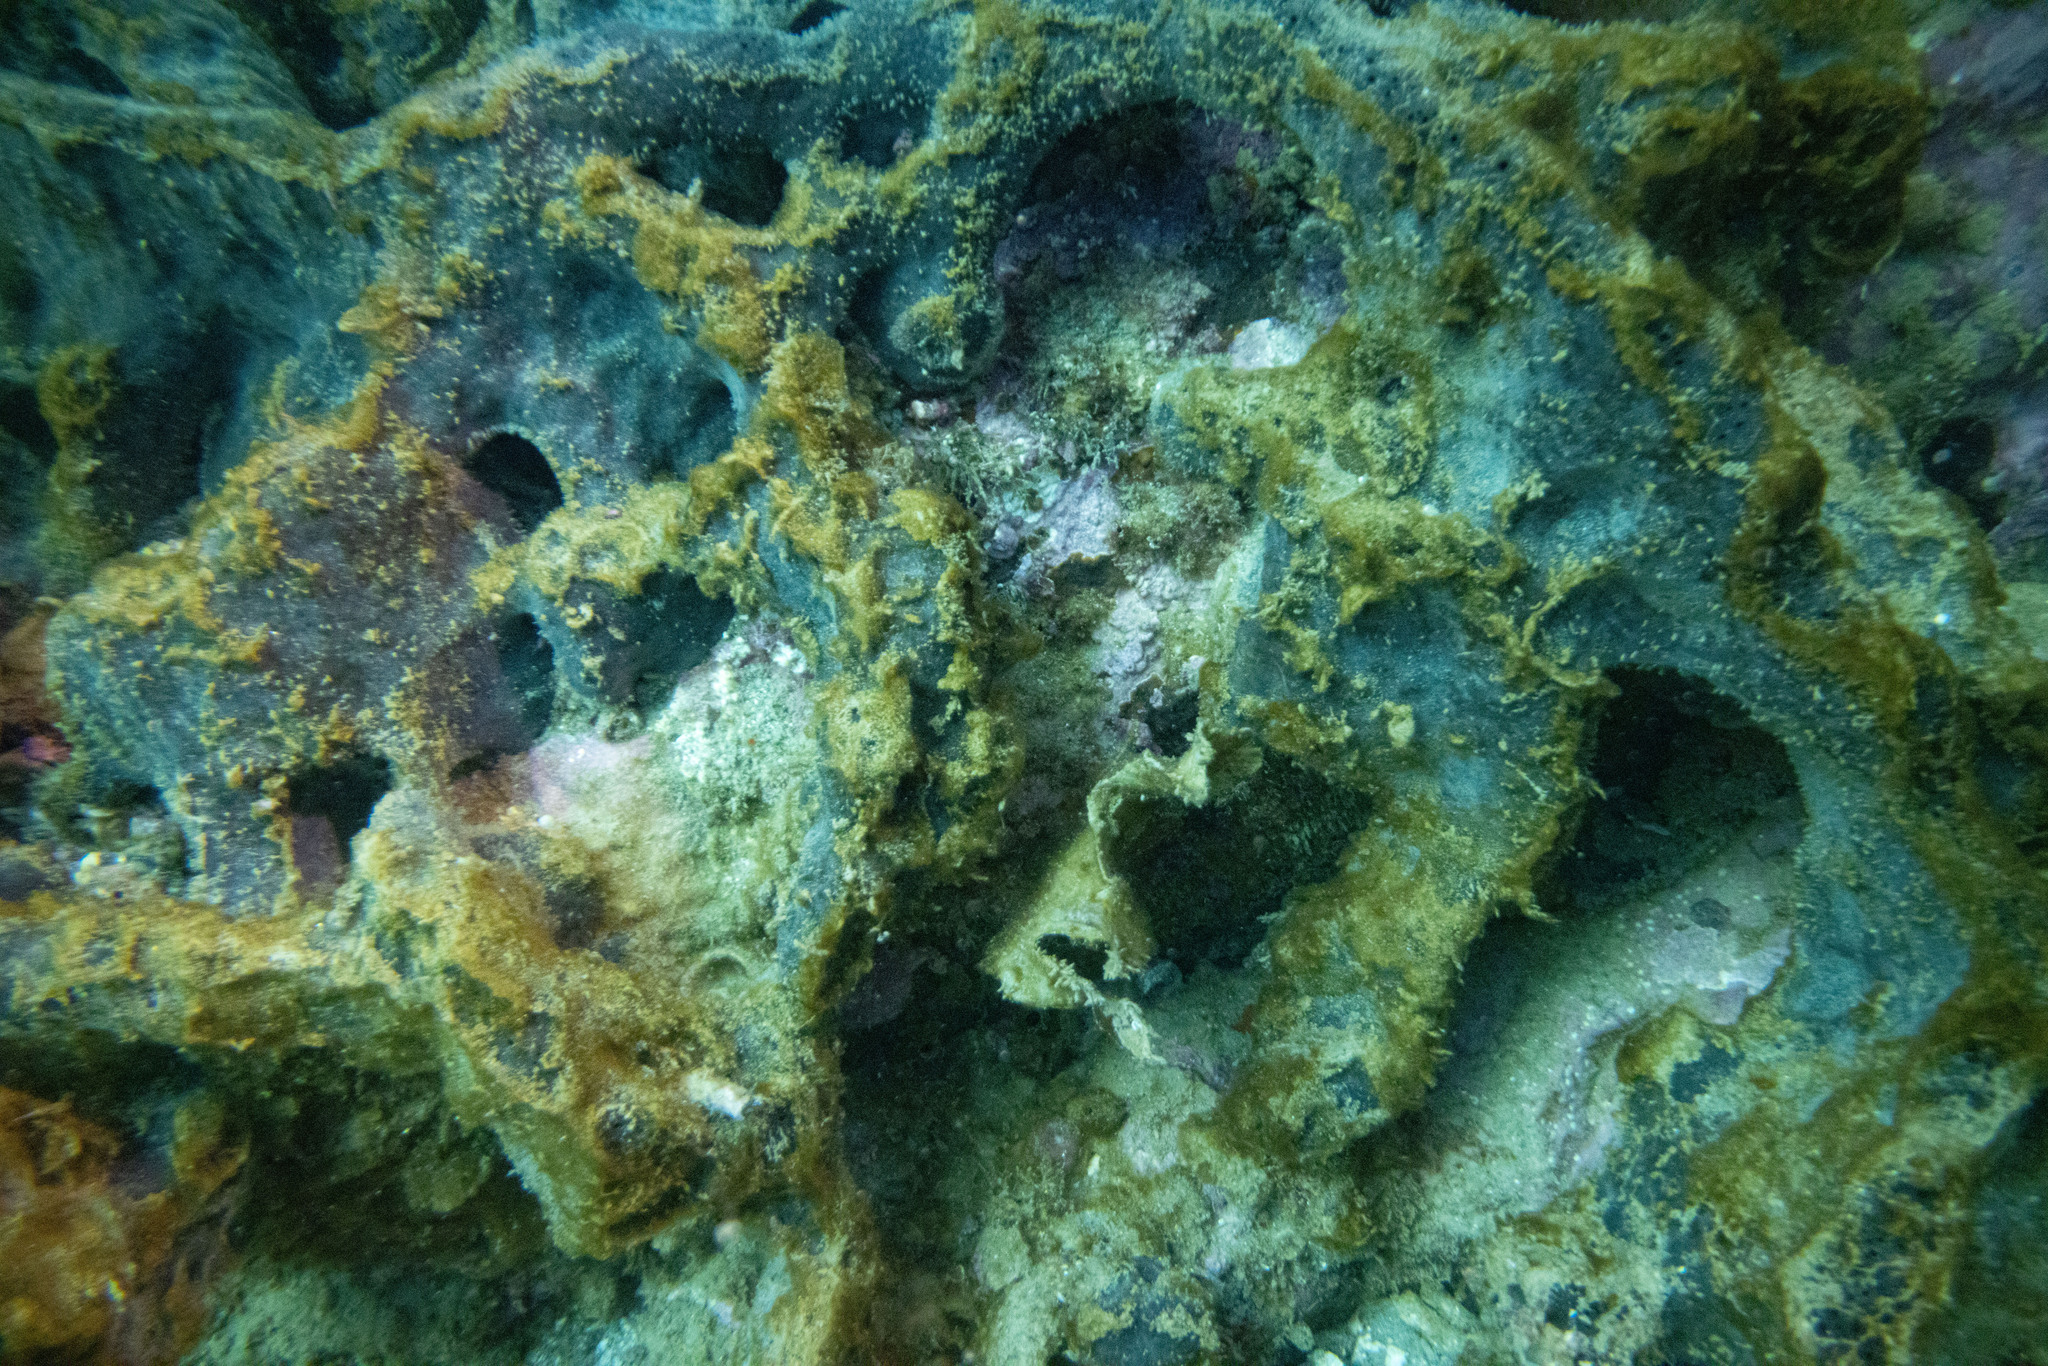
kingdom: Animalia
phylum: Porifera
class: Demospongiae
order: Tetractinellida
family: Ancorinidae
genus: Ecionemia
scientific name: Ecionemia alata
